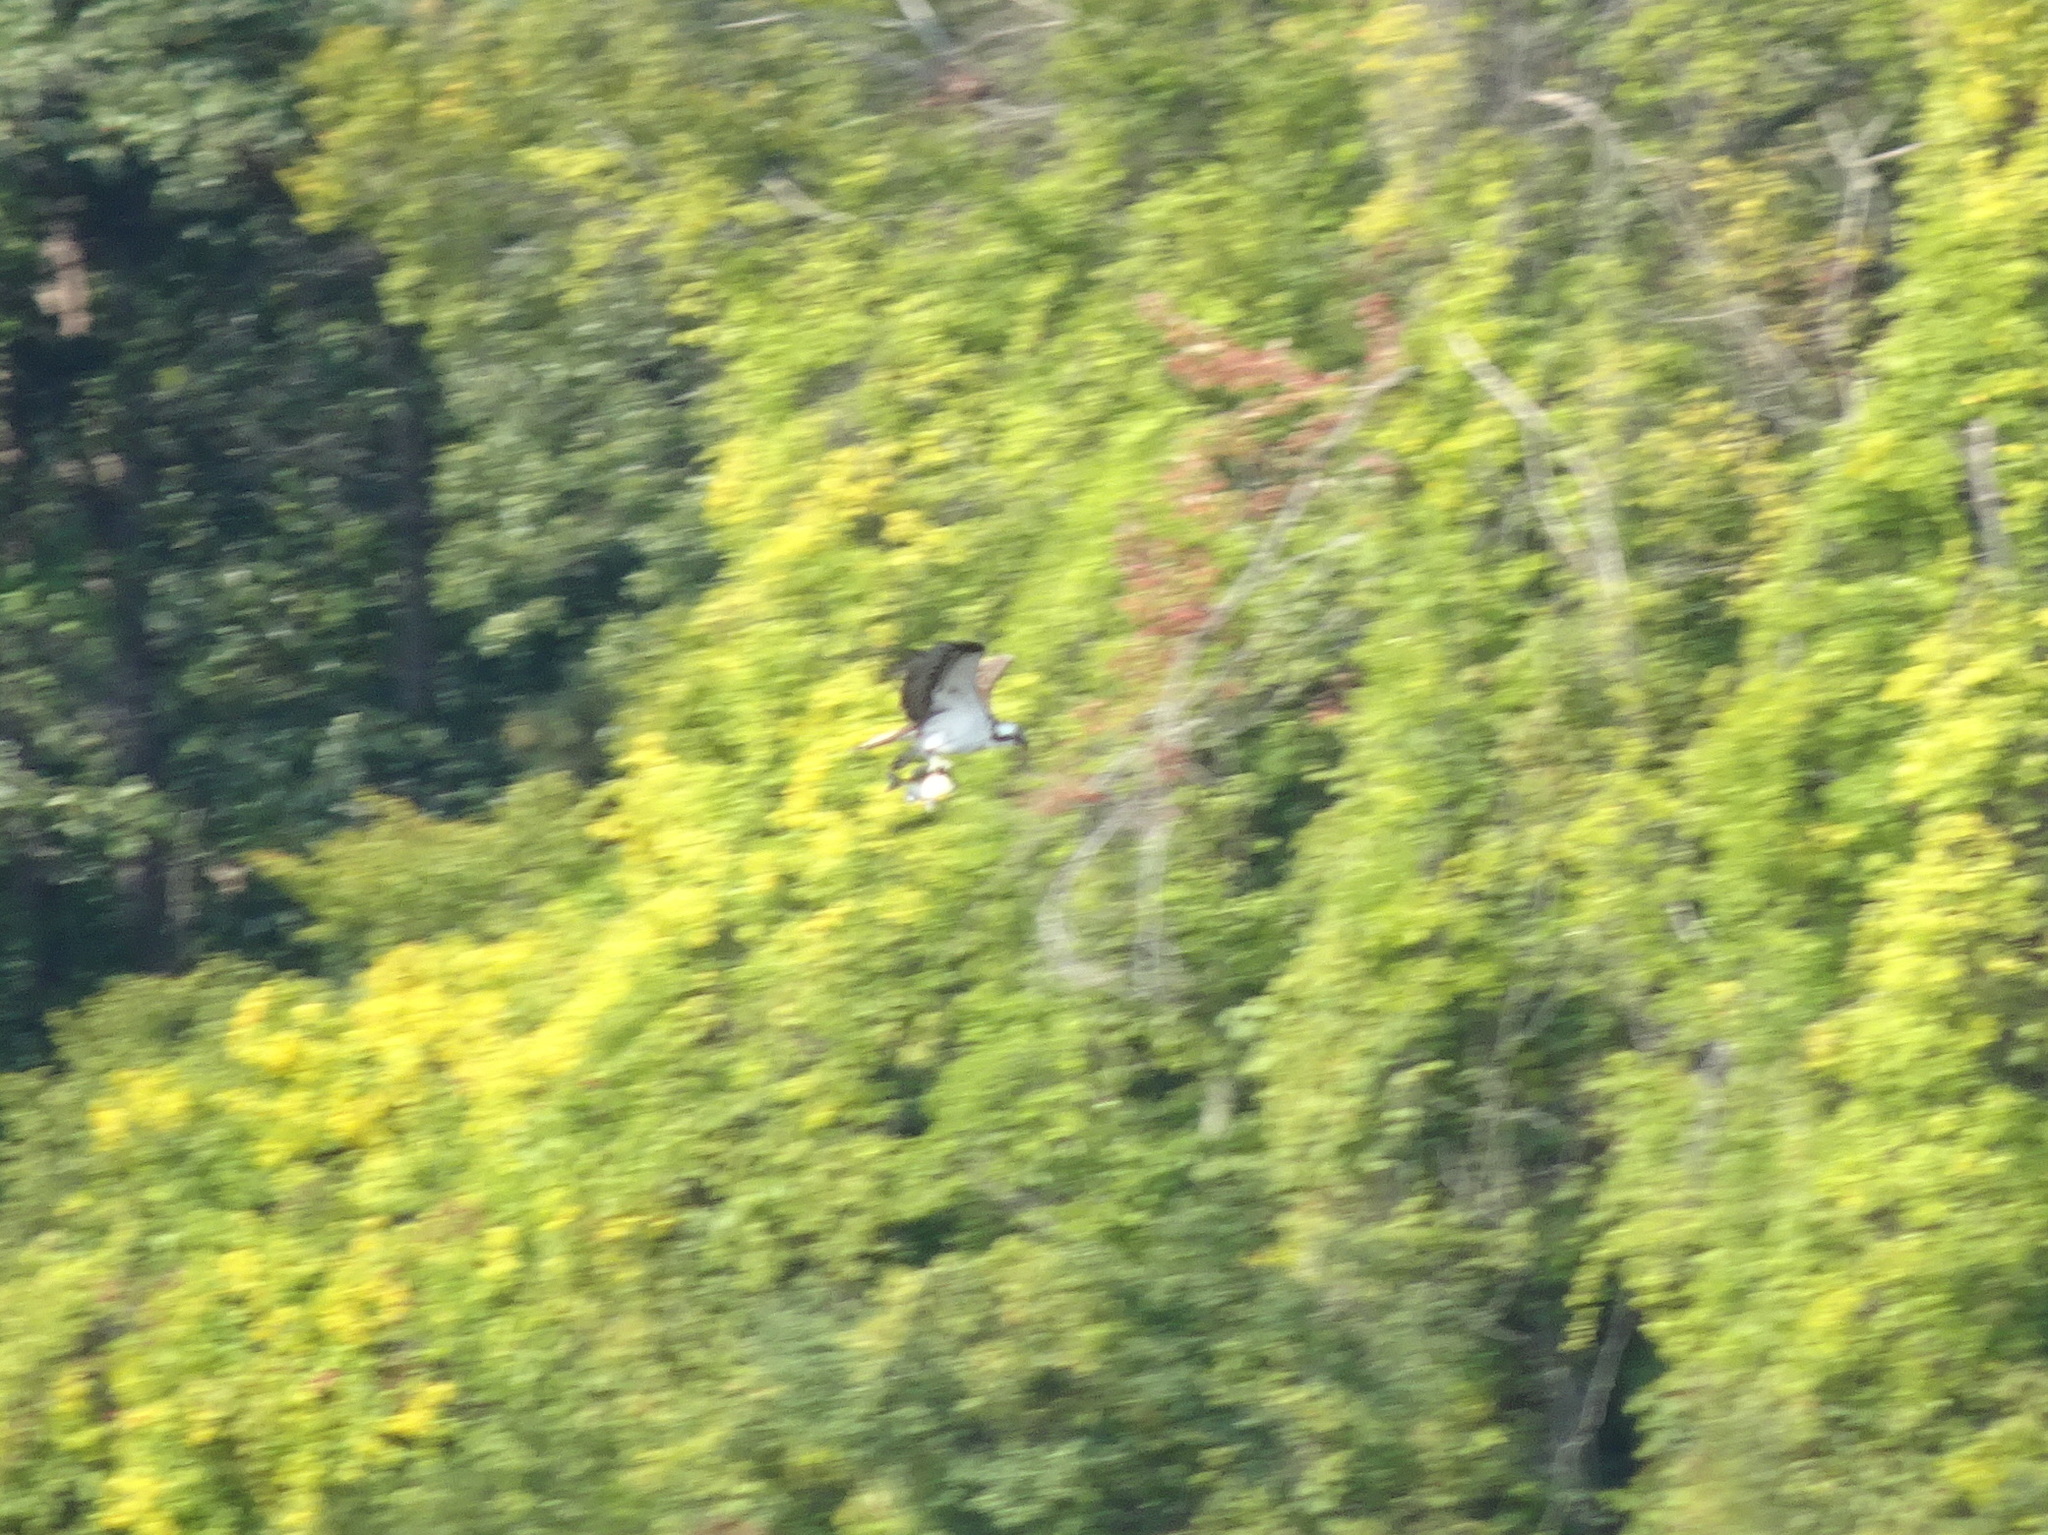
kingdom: Animalia
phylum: Chordata
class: Aves
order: Accipitriformes
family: Pandionidae
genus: Pandion
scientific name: Pandion haliaetus
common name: Osprey
